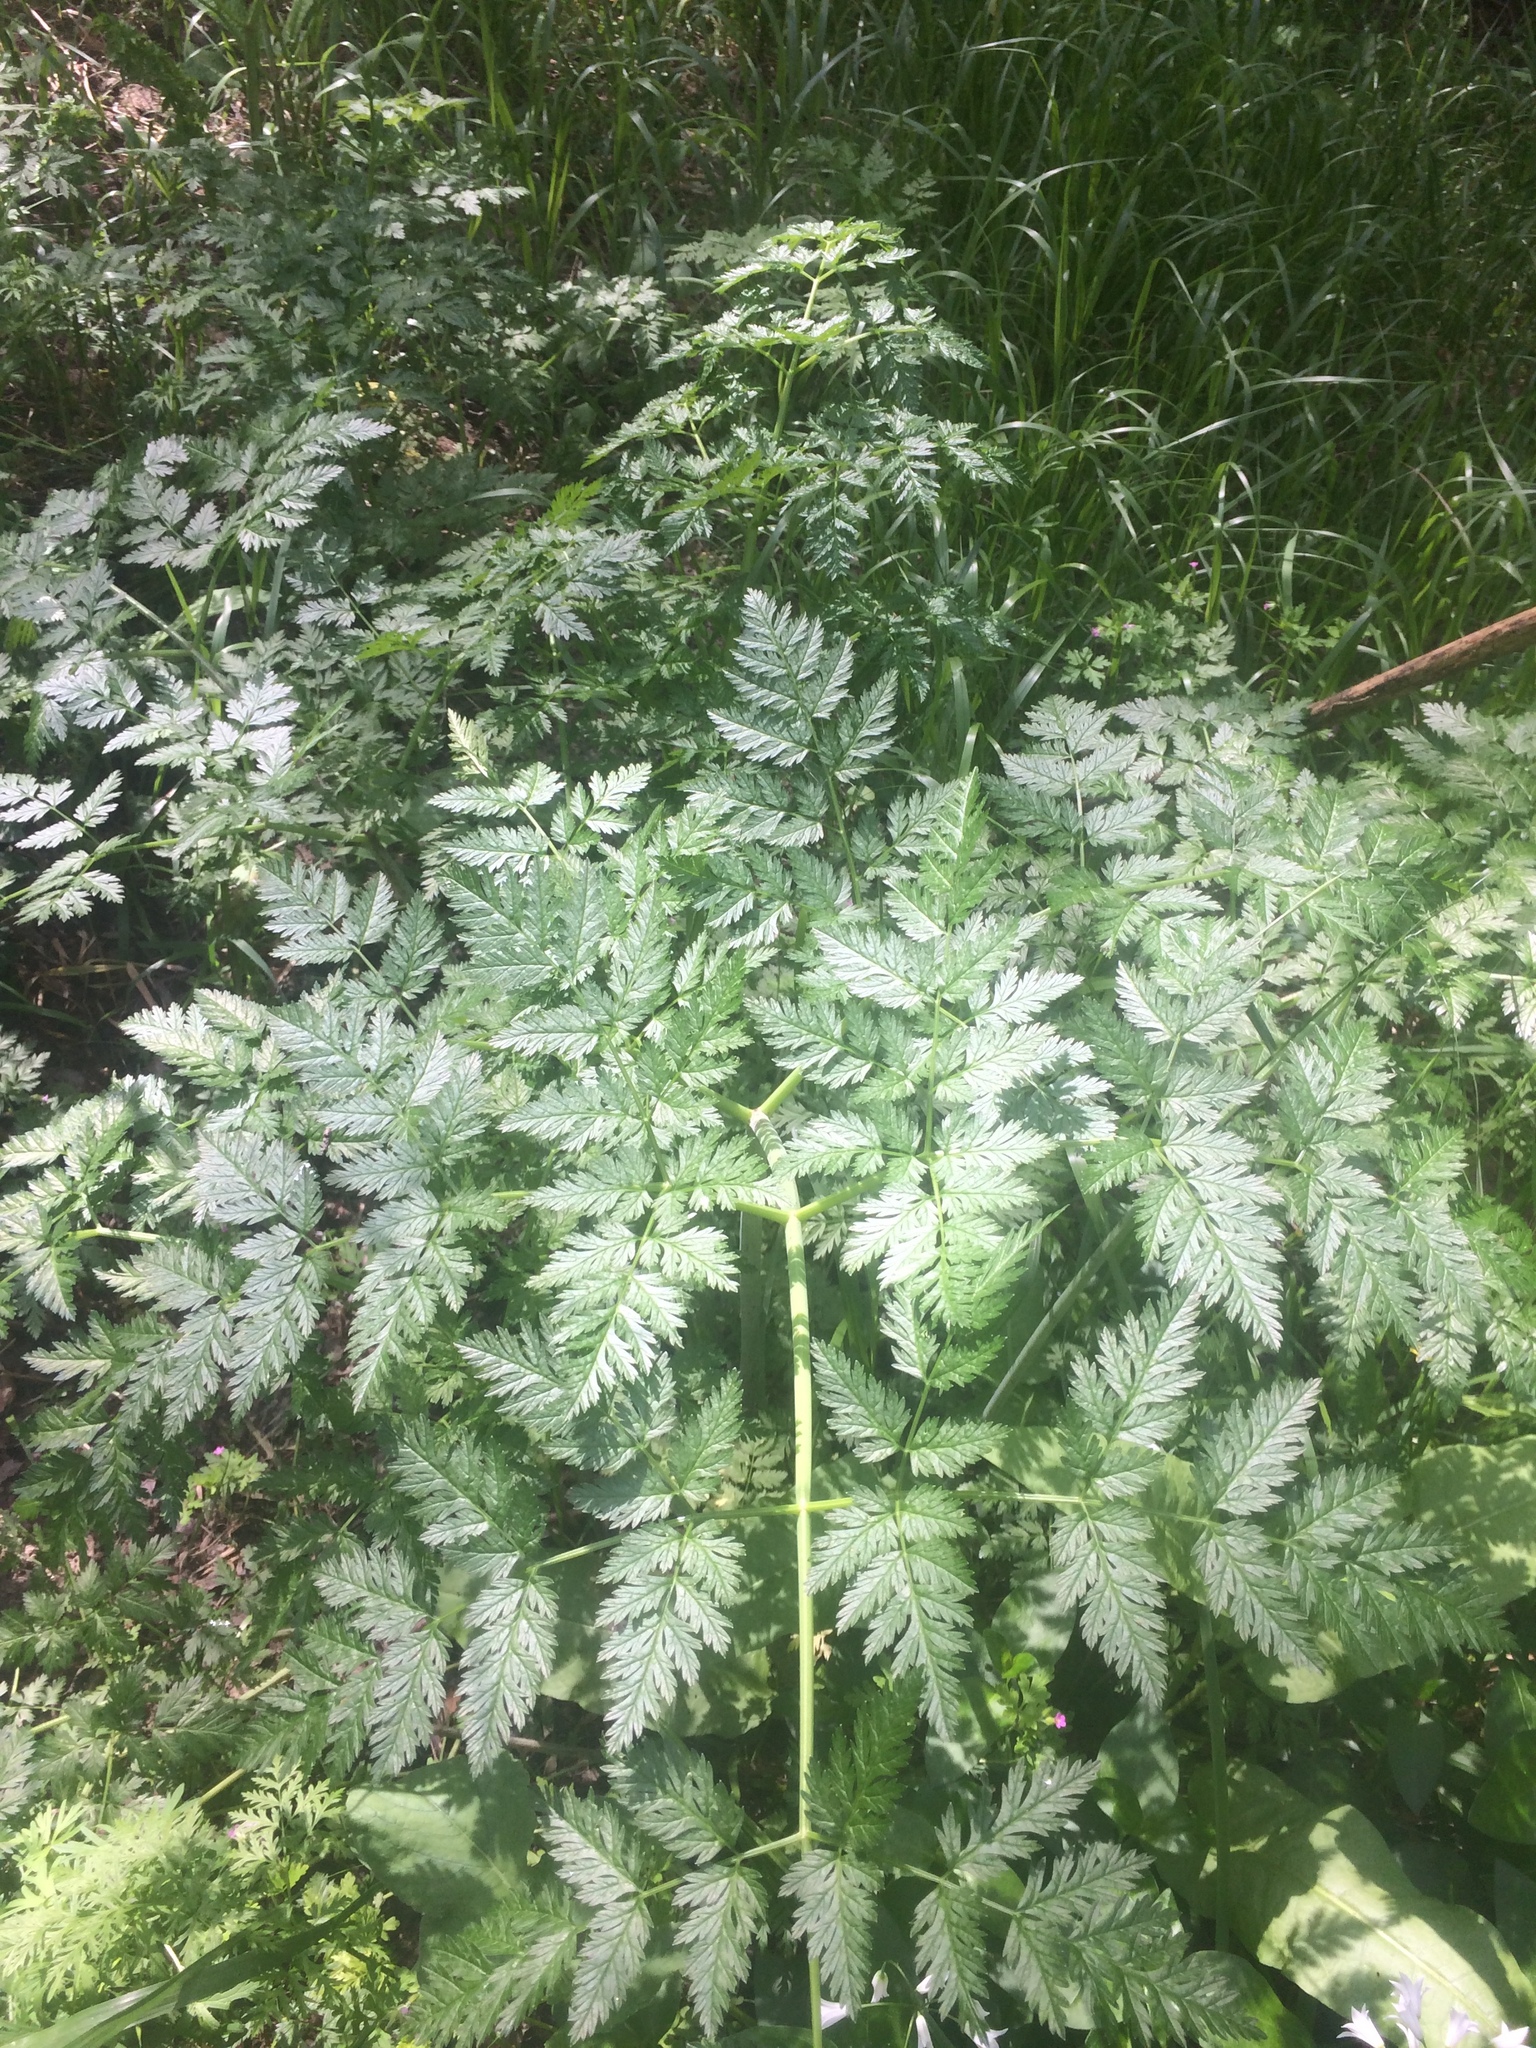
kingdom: Plantae
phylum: Tracheophyta
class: Magnoliopsida
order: Apiales
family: Apiaceae
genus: Conium
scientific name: Conium maculatum
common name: Hemlock
